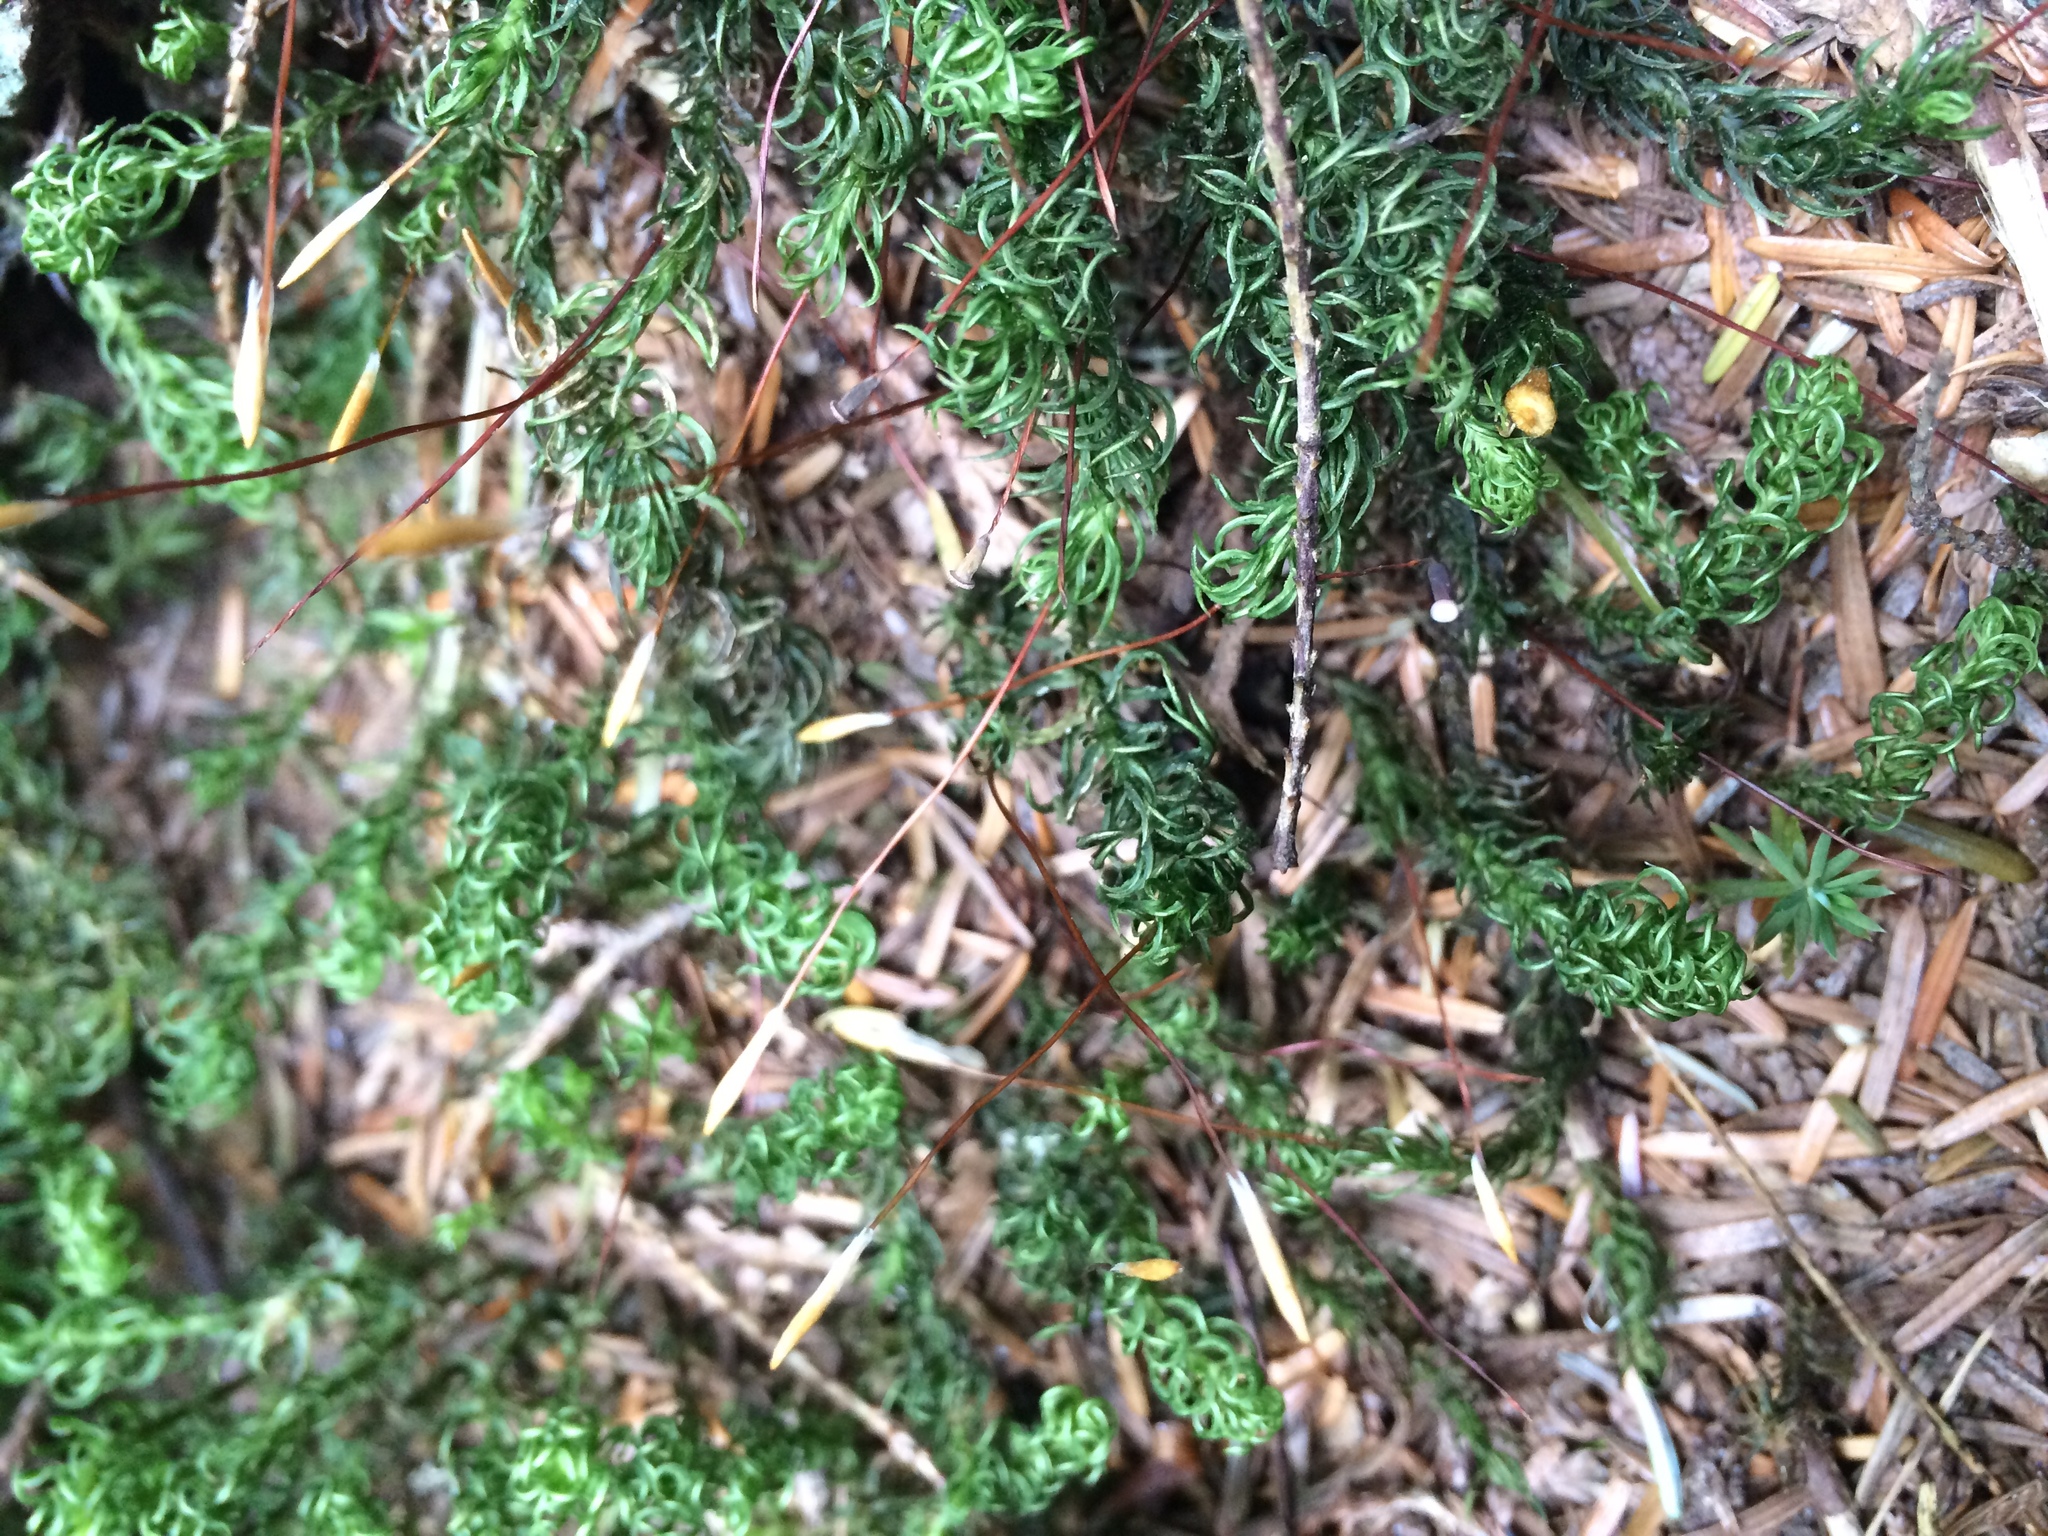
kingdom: Plantae
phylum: Bryophyta
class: Polytrichopsida
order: Polytrichales
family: Polytrichaceae
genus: Pogonatum
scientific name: Pogonatum contortum
